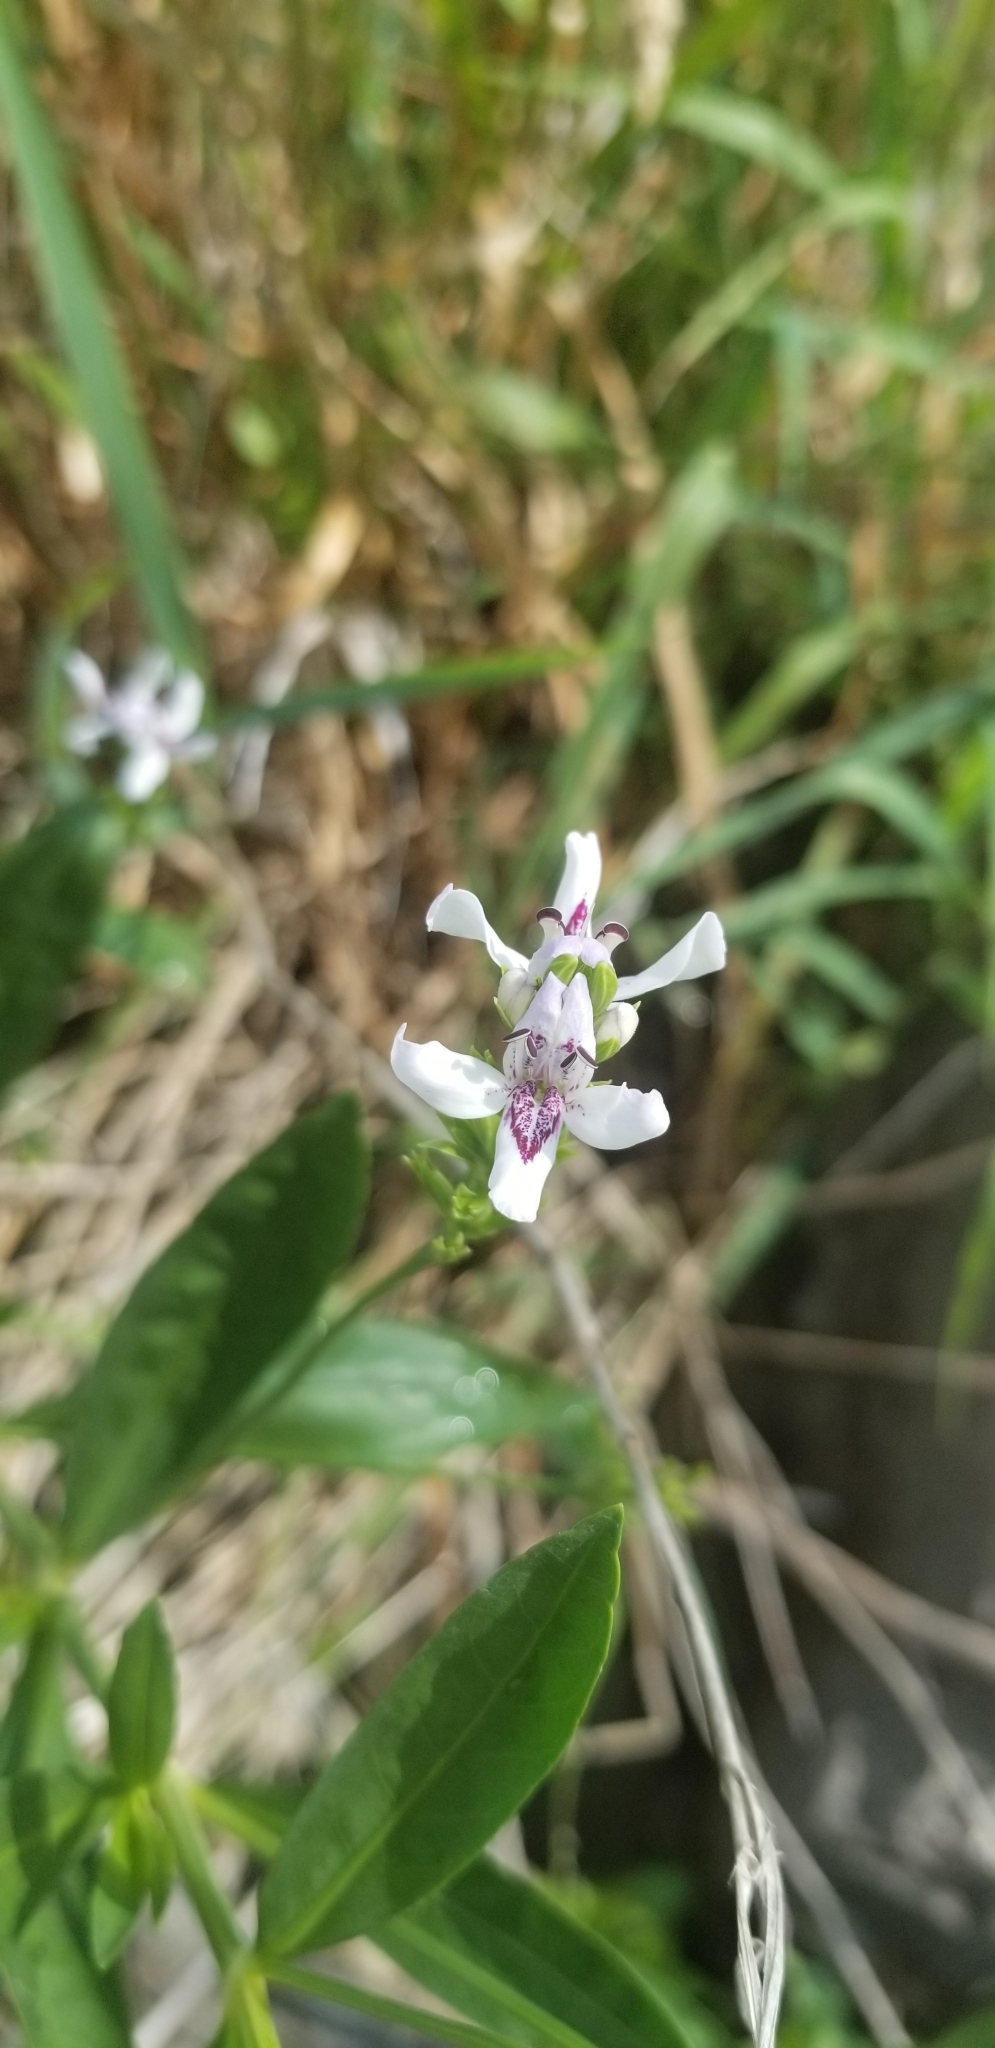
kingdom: Plantae
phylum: Tracheophyta
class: Magnoliopsida
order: Lamiales
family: Acanthaceae
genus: Dianthera
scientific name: Dianthera americana
